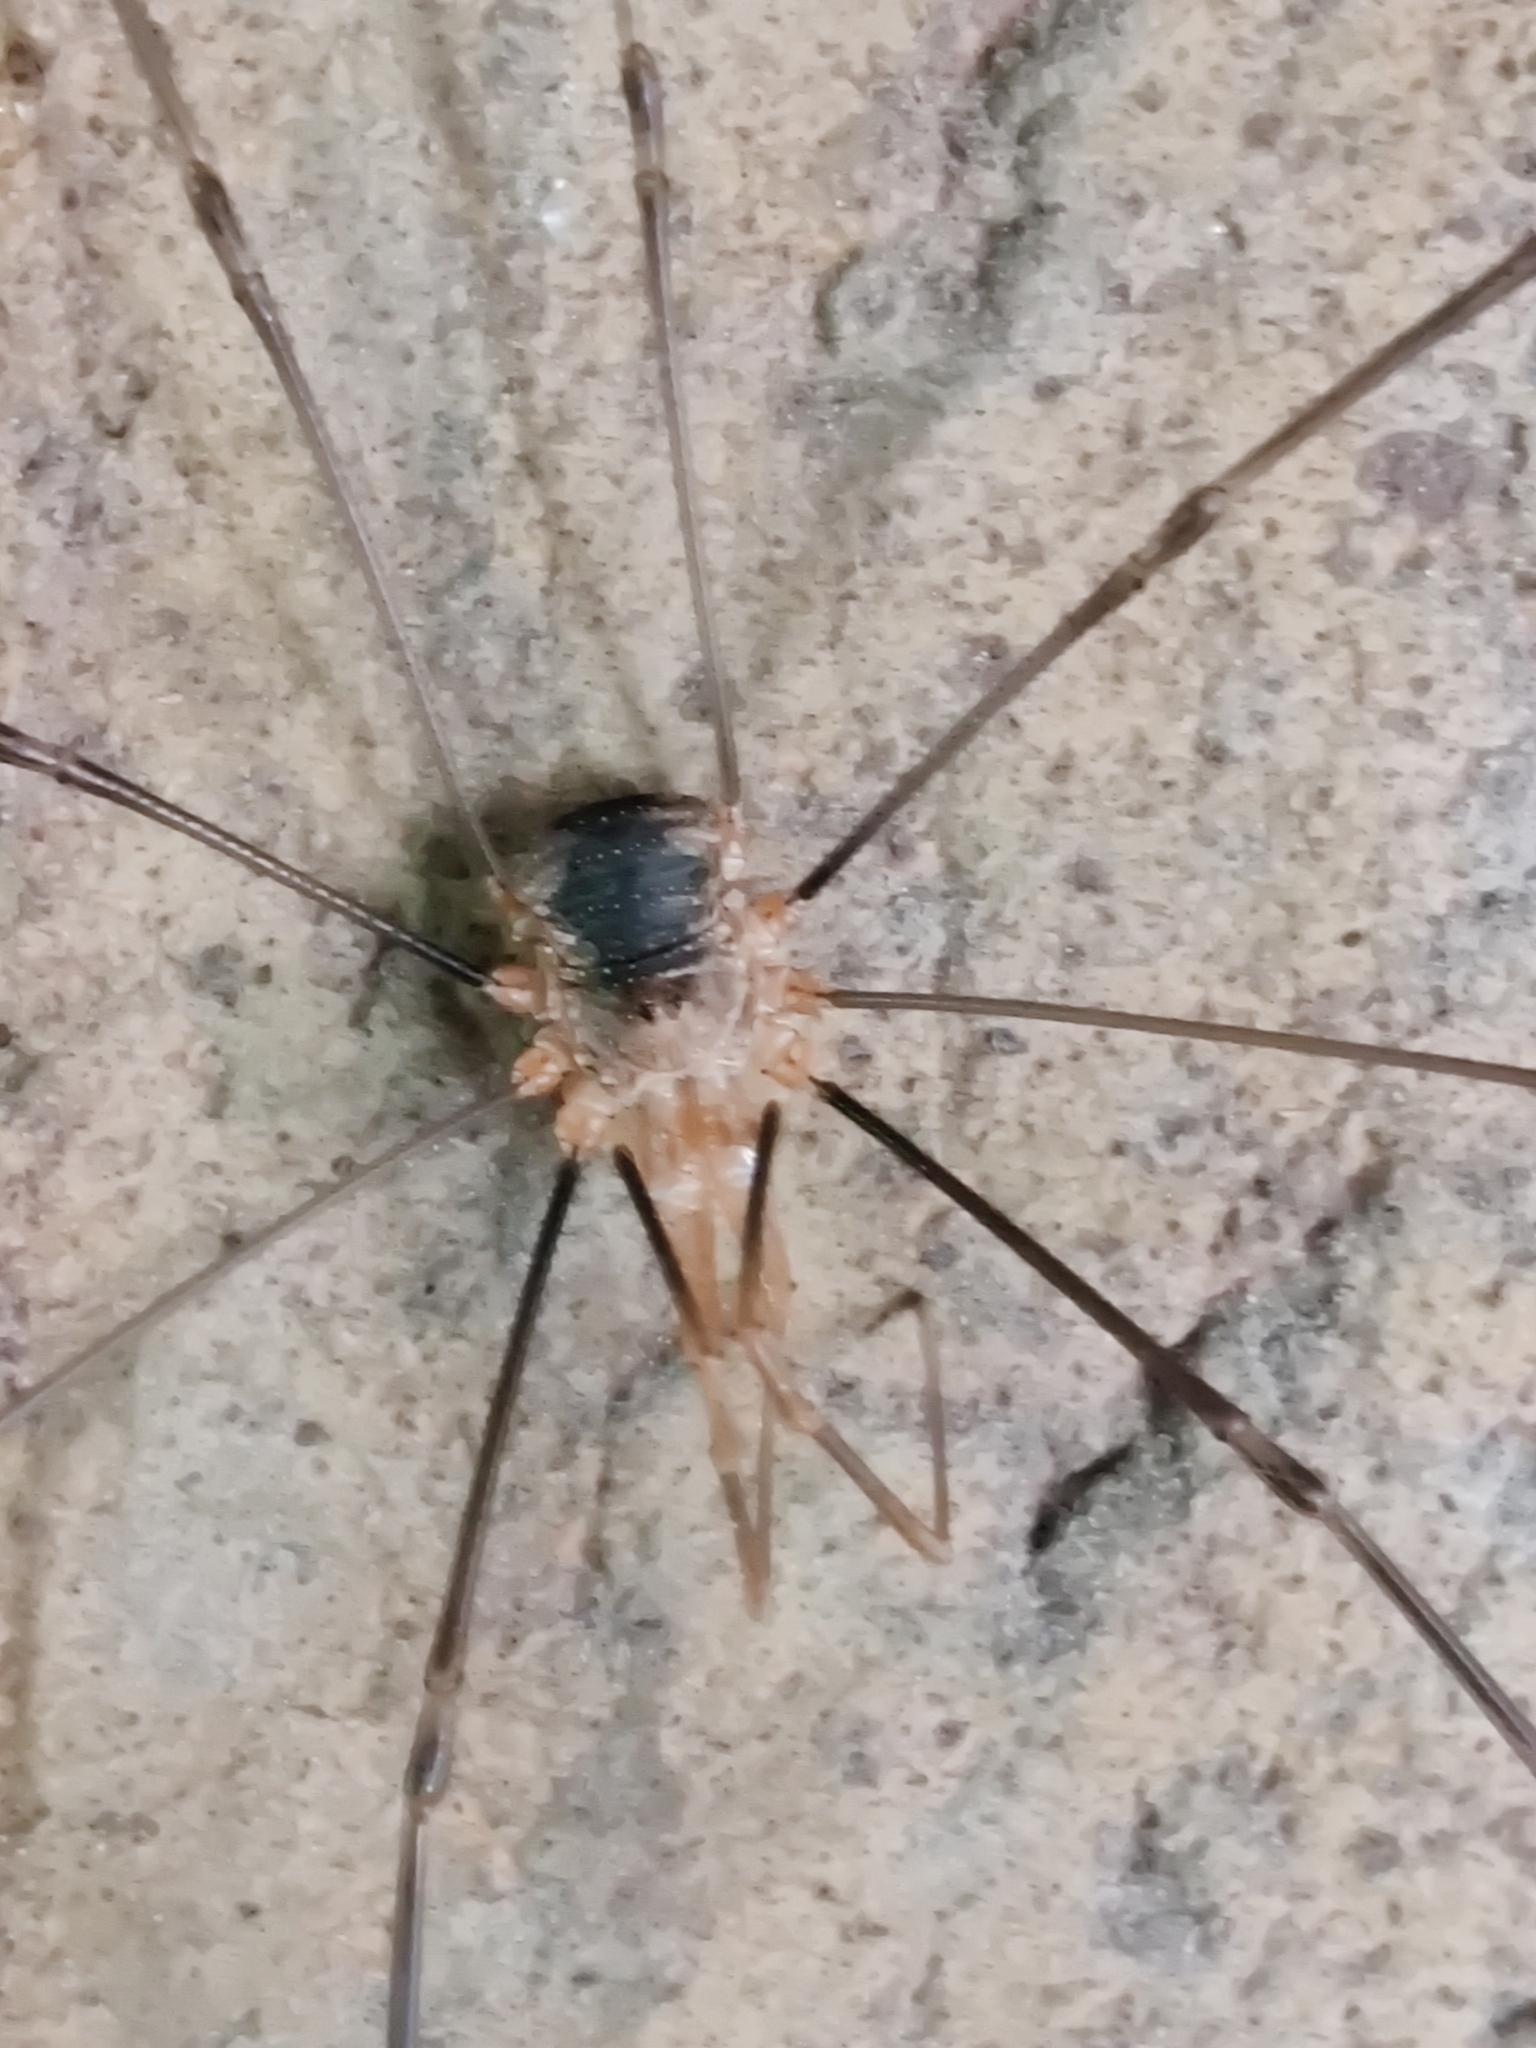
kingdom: Animalia
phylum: Arthropoda
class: Arachnida
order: Opiliones
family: Phalangiidae
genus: Phalangium
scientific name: Phalangium opilio
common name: Daddy longleg
